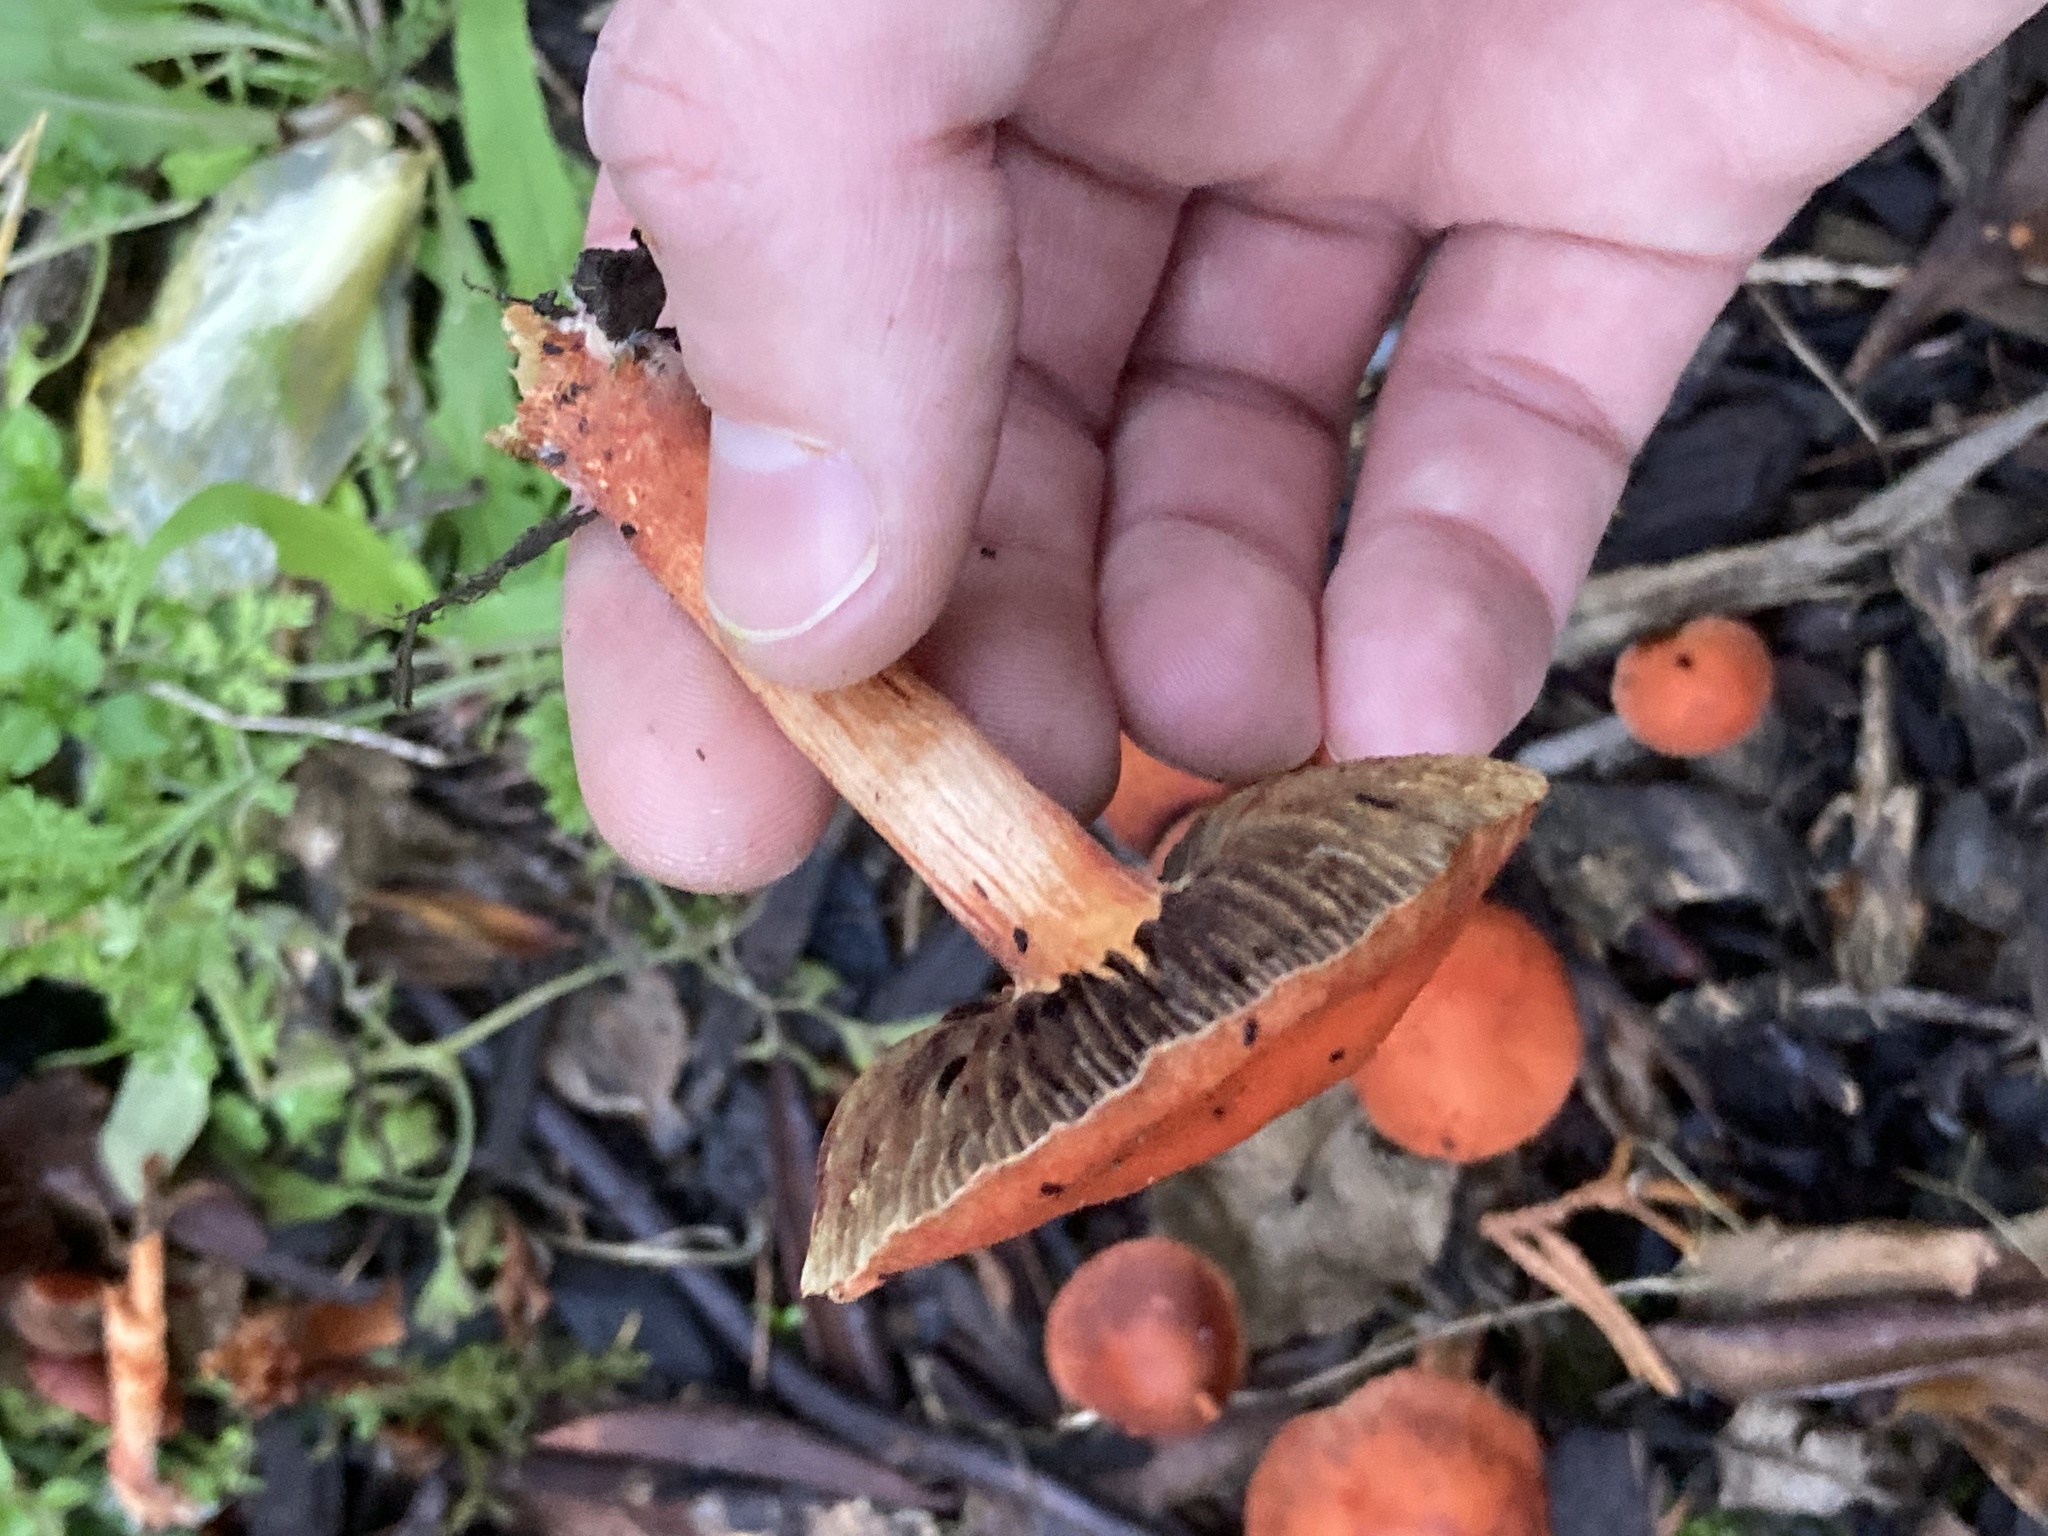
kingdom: Fungi
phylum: Basidiomycota
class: Agaricomycetes
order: Agaricales
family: Strophariaceae
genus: Leratiomyces
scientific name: Leratiomyces ceres
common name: Redlead roundhead
